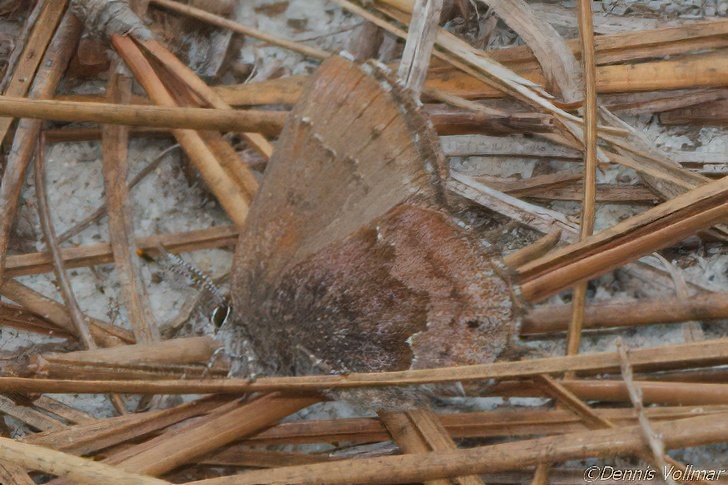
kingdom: Animalia
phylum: Arthropoda
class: Insecta
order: Lepidoptera
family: Lycaenidae
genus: Thecla
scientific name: Thecla irus
